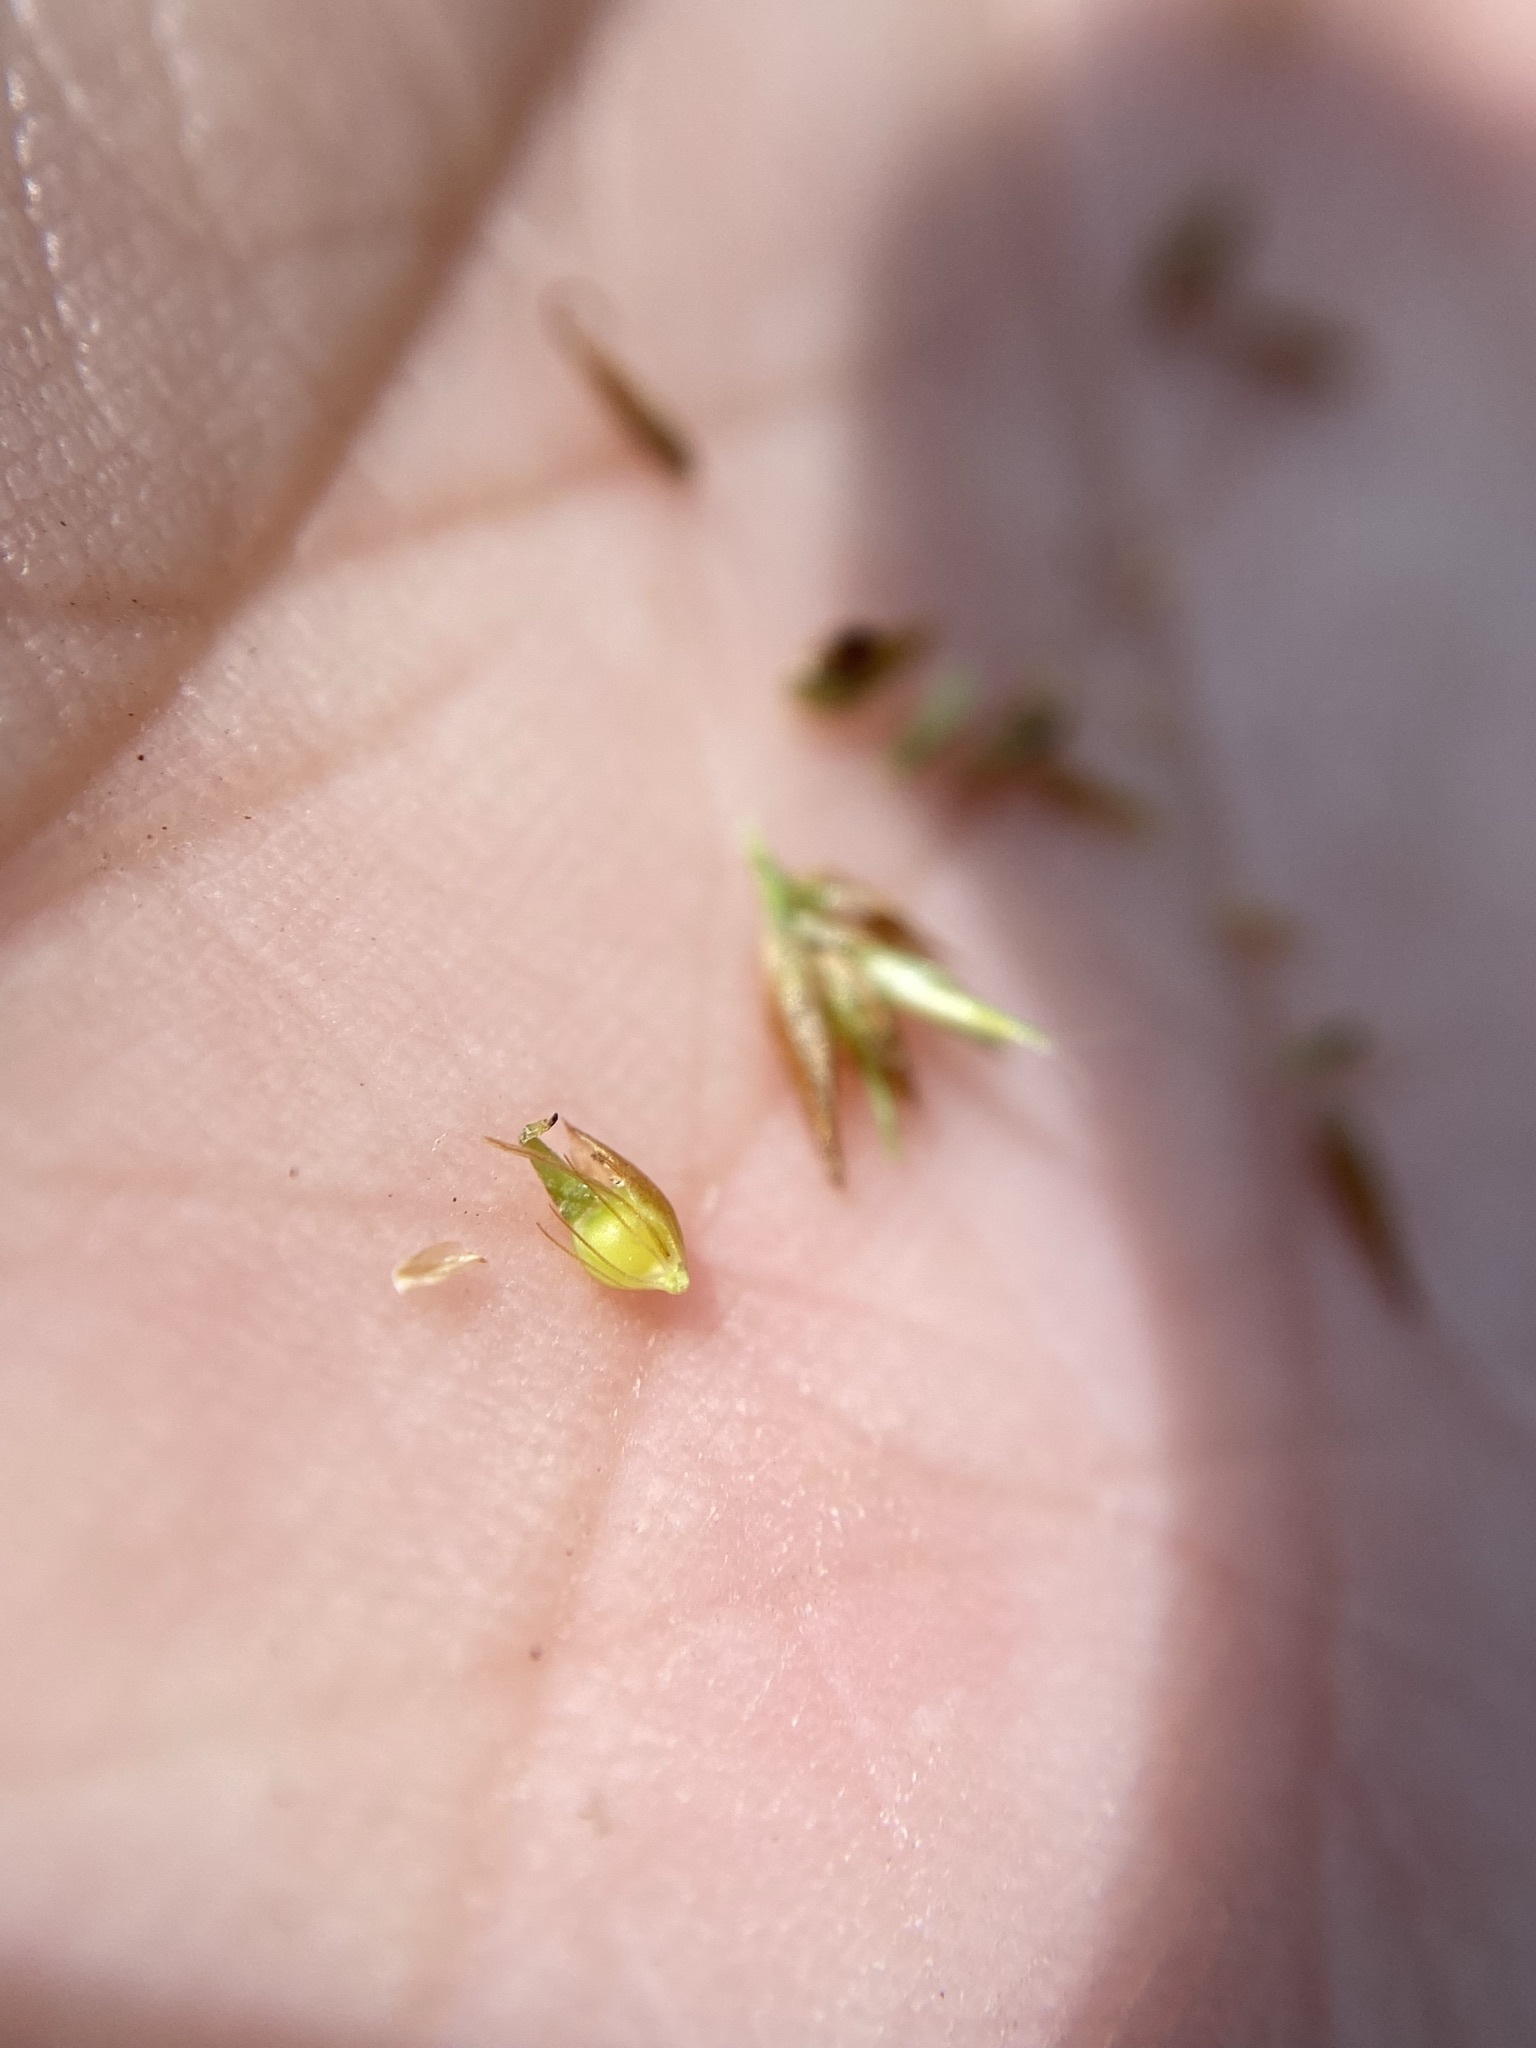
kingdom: Plantae
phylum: Tracheophyta
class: Liliopsida
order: Poales
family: Cyperaceae
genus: Rhynchospora
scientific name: Rhynchospora fascicularis
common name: Fascicled beak sedge
